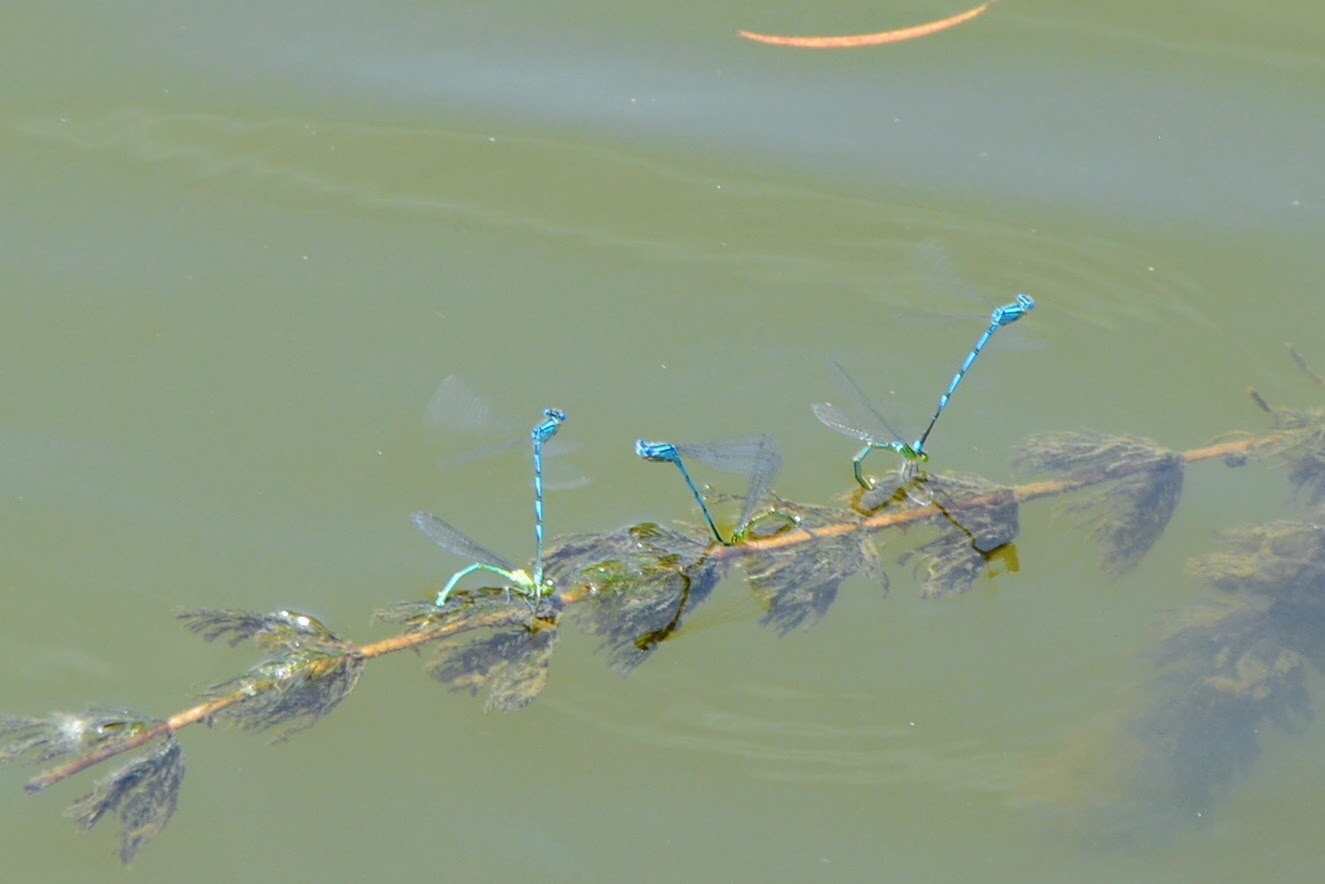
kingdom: Animalia
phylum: Arthropoda
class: Insecta
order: Odonata
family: Coenagrionidae
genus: Erythromma
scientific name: Erythromma lindenii
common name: Blue-eye
